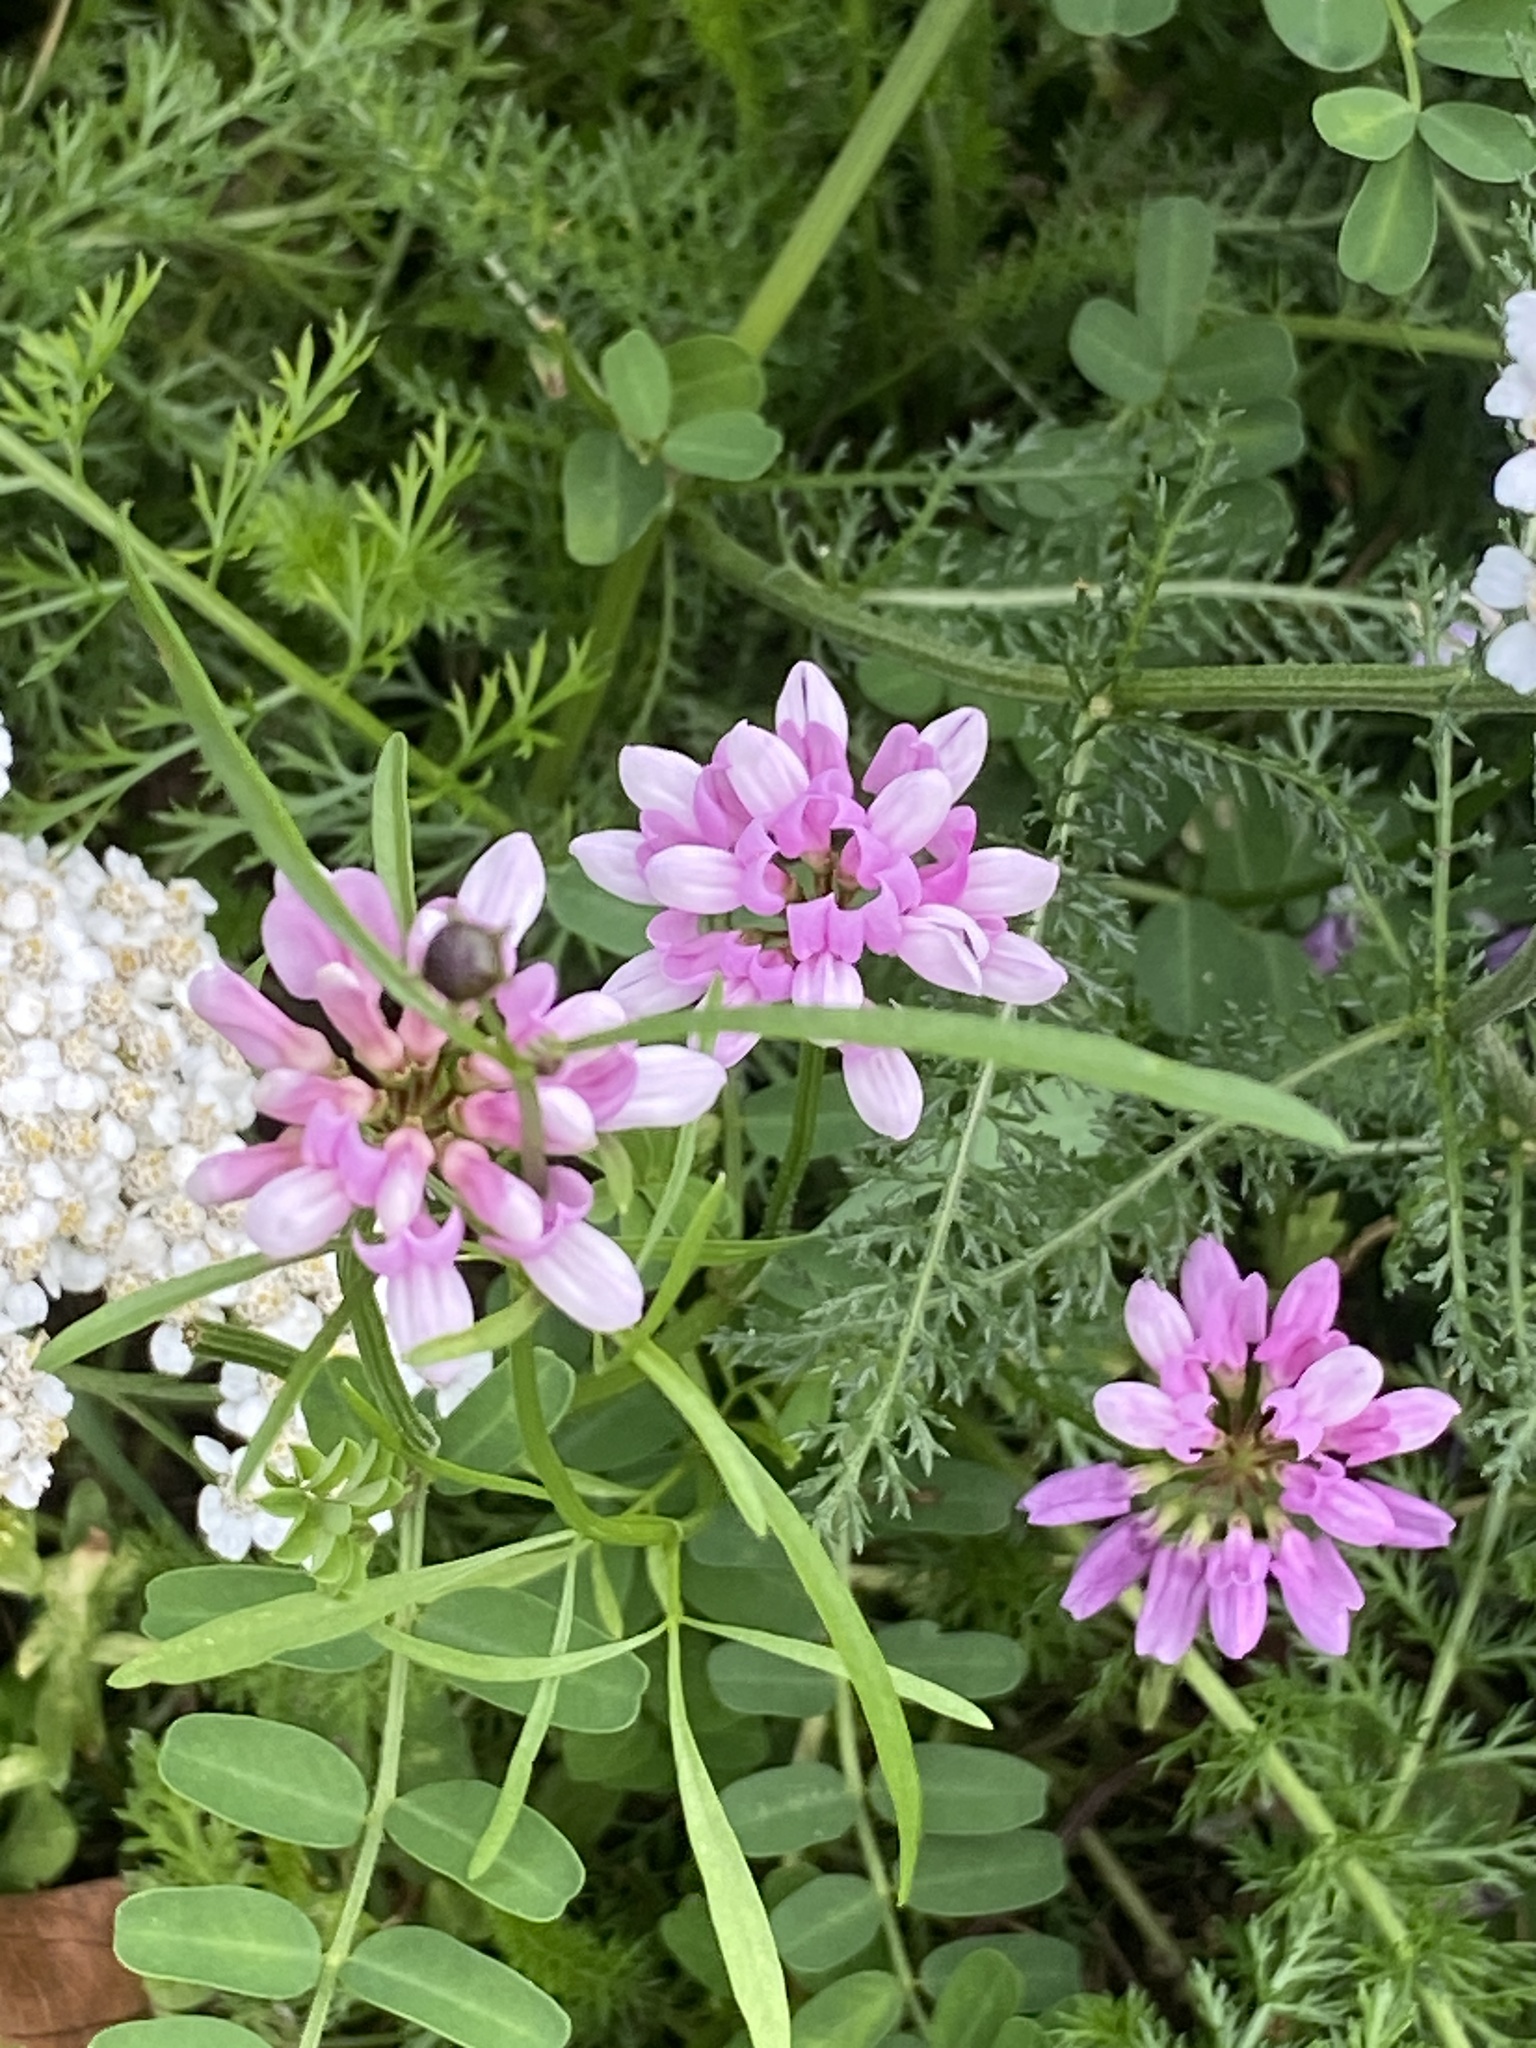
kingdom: Plantae
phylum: Tracheophyta
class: Magnoliopsida
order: Fabales
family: Fabaceae
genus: Coronilla
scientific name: Coronilla varia
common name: Crownvetch
